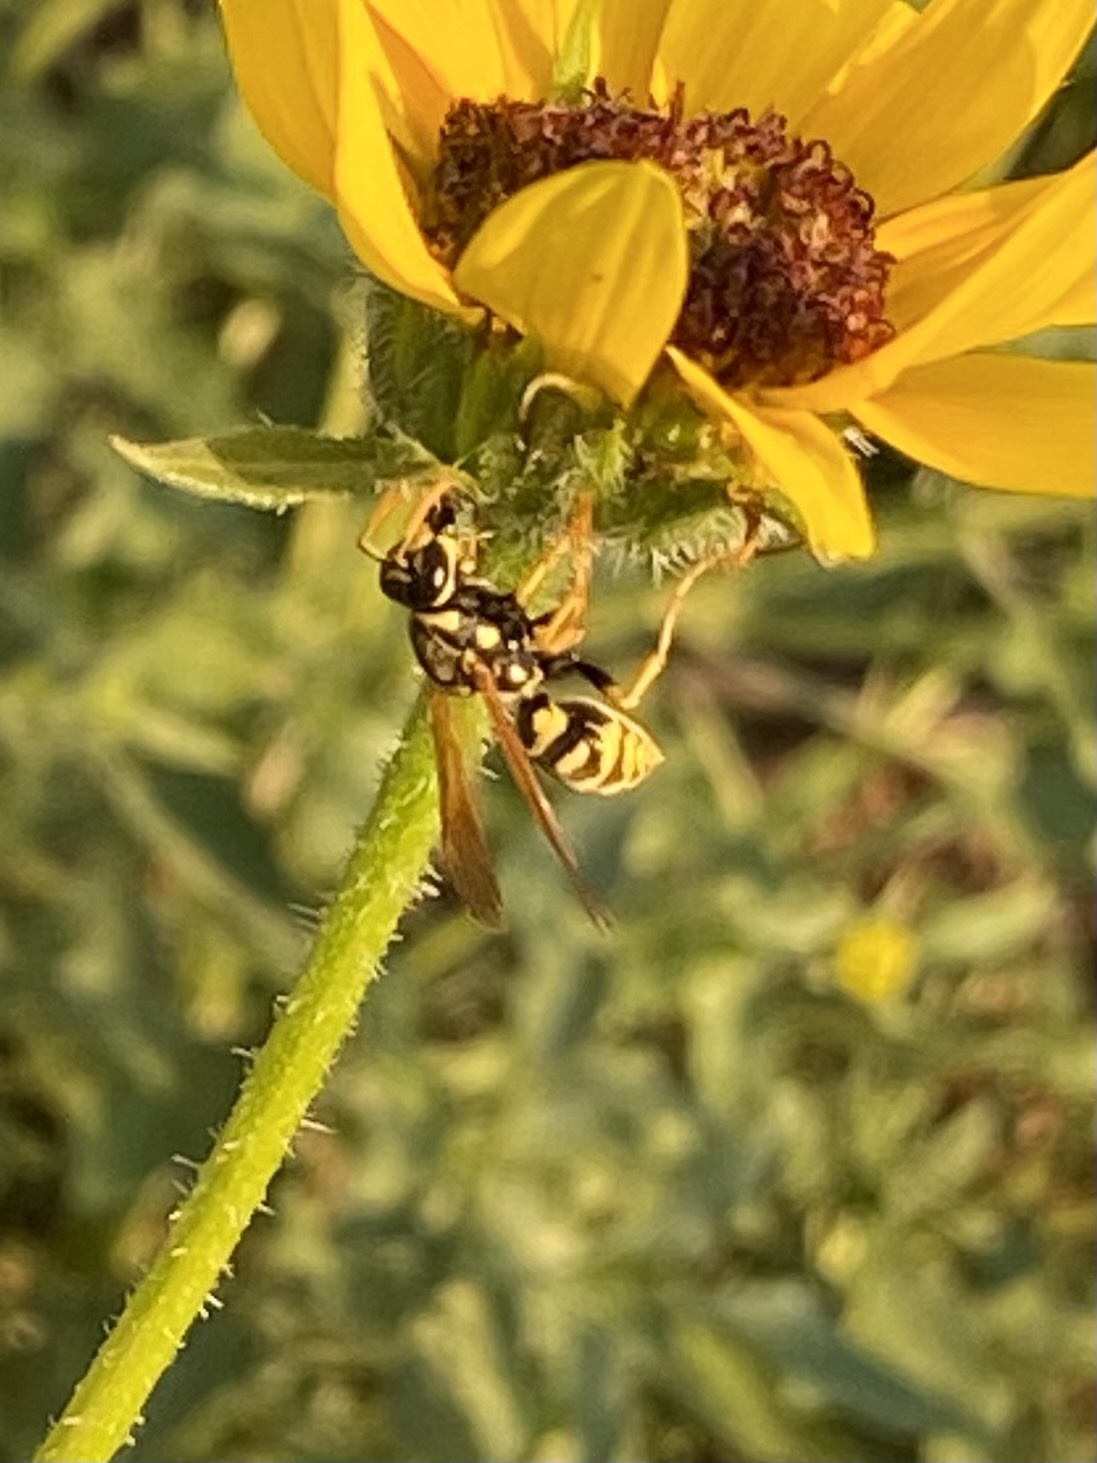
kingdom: Animalia
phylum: Arthropoda
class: Insecta
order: Hymenoptera
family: Eumenidae
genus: Polistes
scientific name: Polistes dominula
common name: Paper wasp
